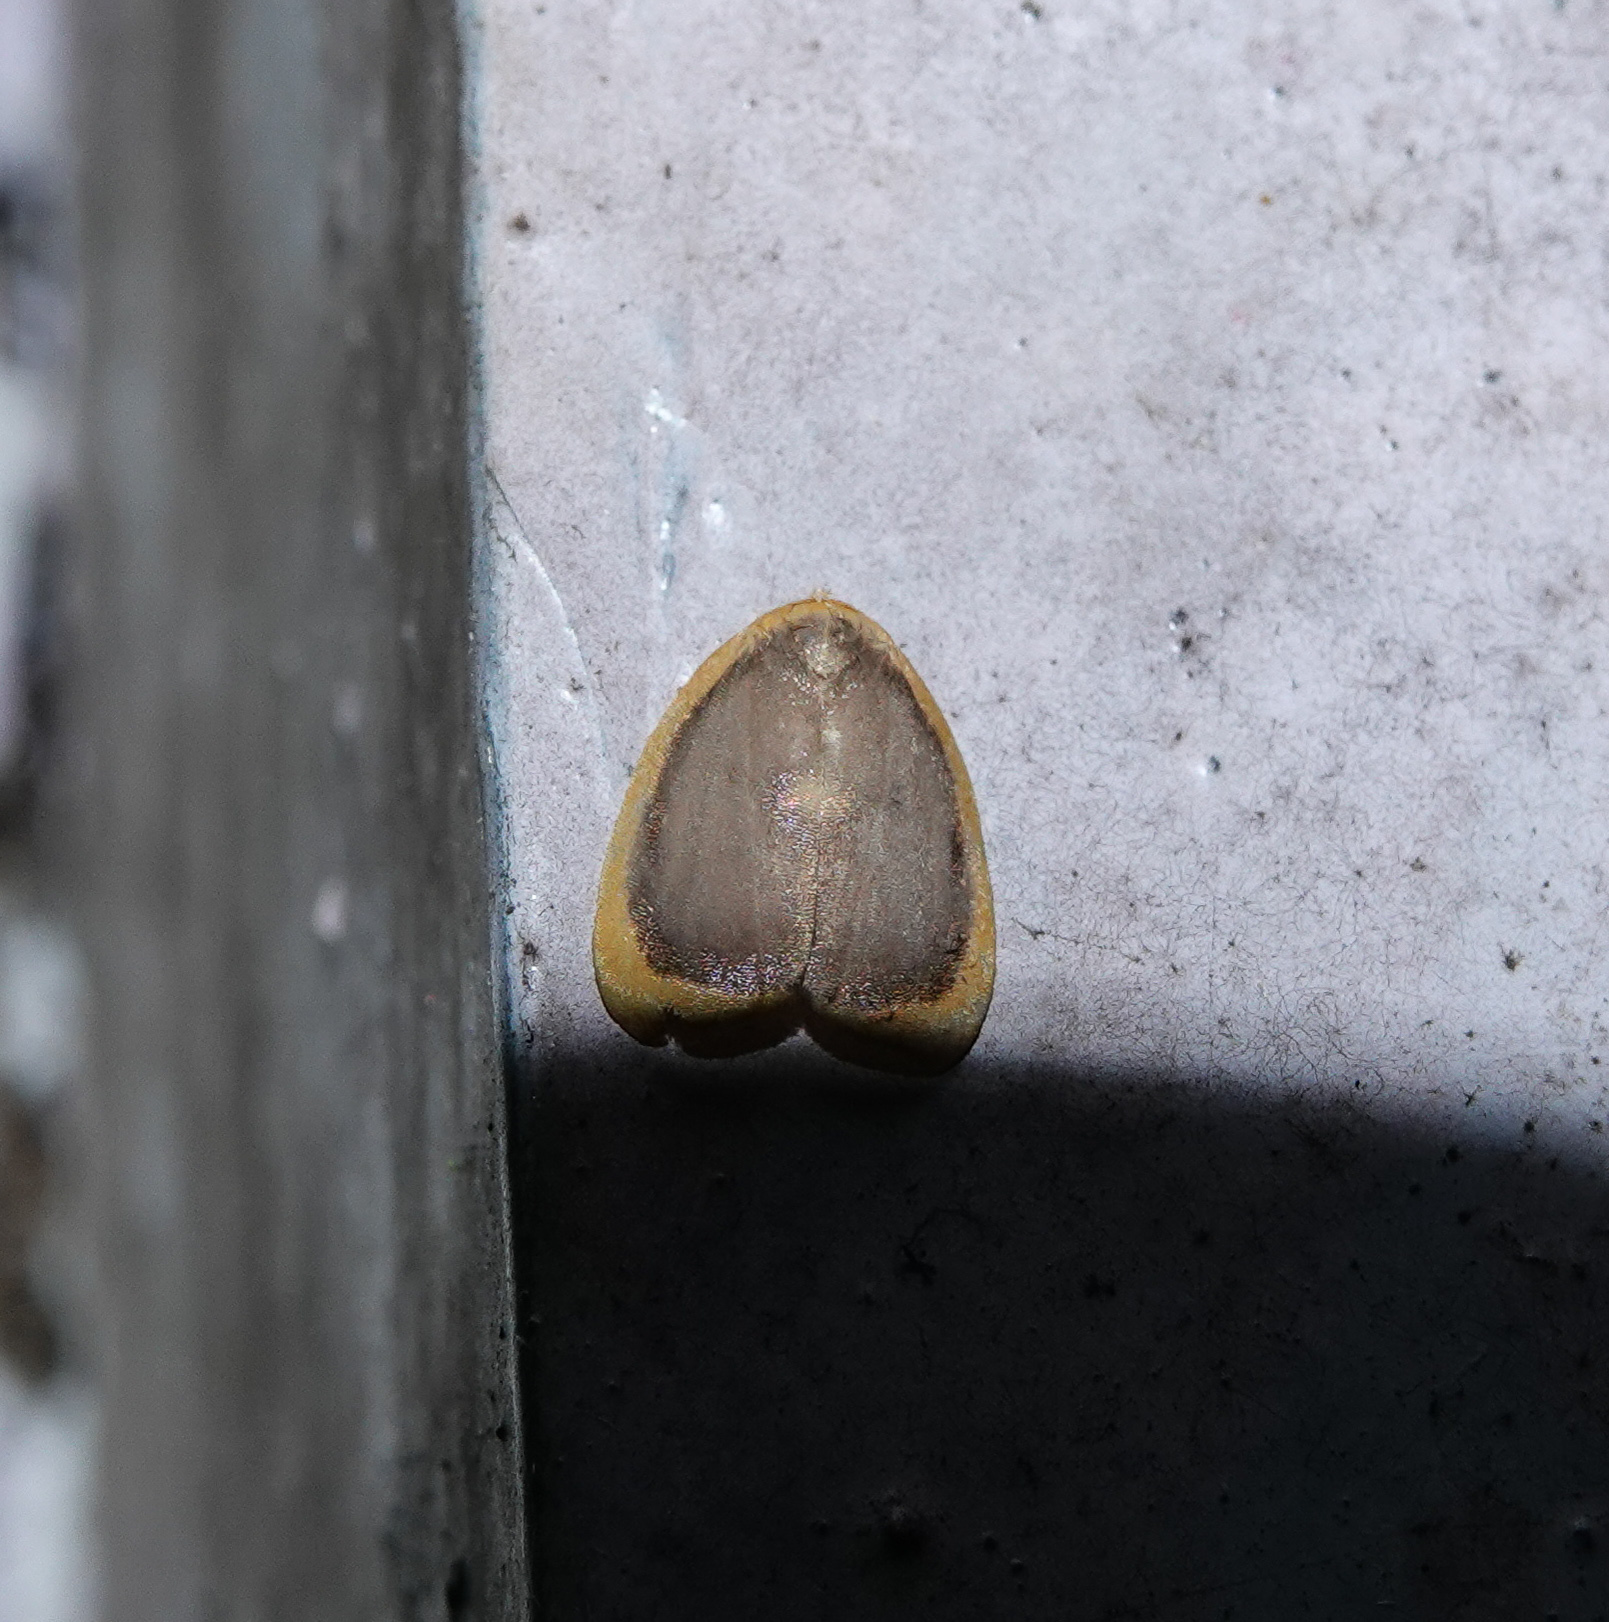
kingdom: Animalia
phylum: Arthropoda
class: Insecta
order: Lepidoptera
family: Erebidae
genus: Cyclosiella
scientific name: Cyclosiella dulcicula
